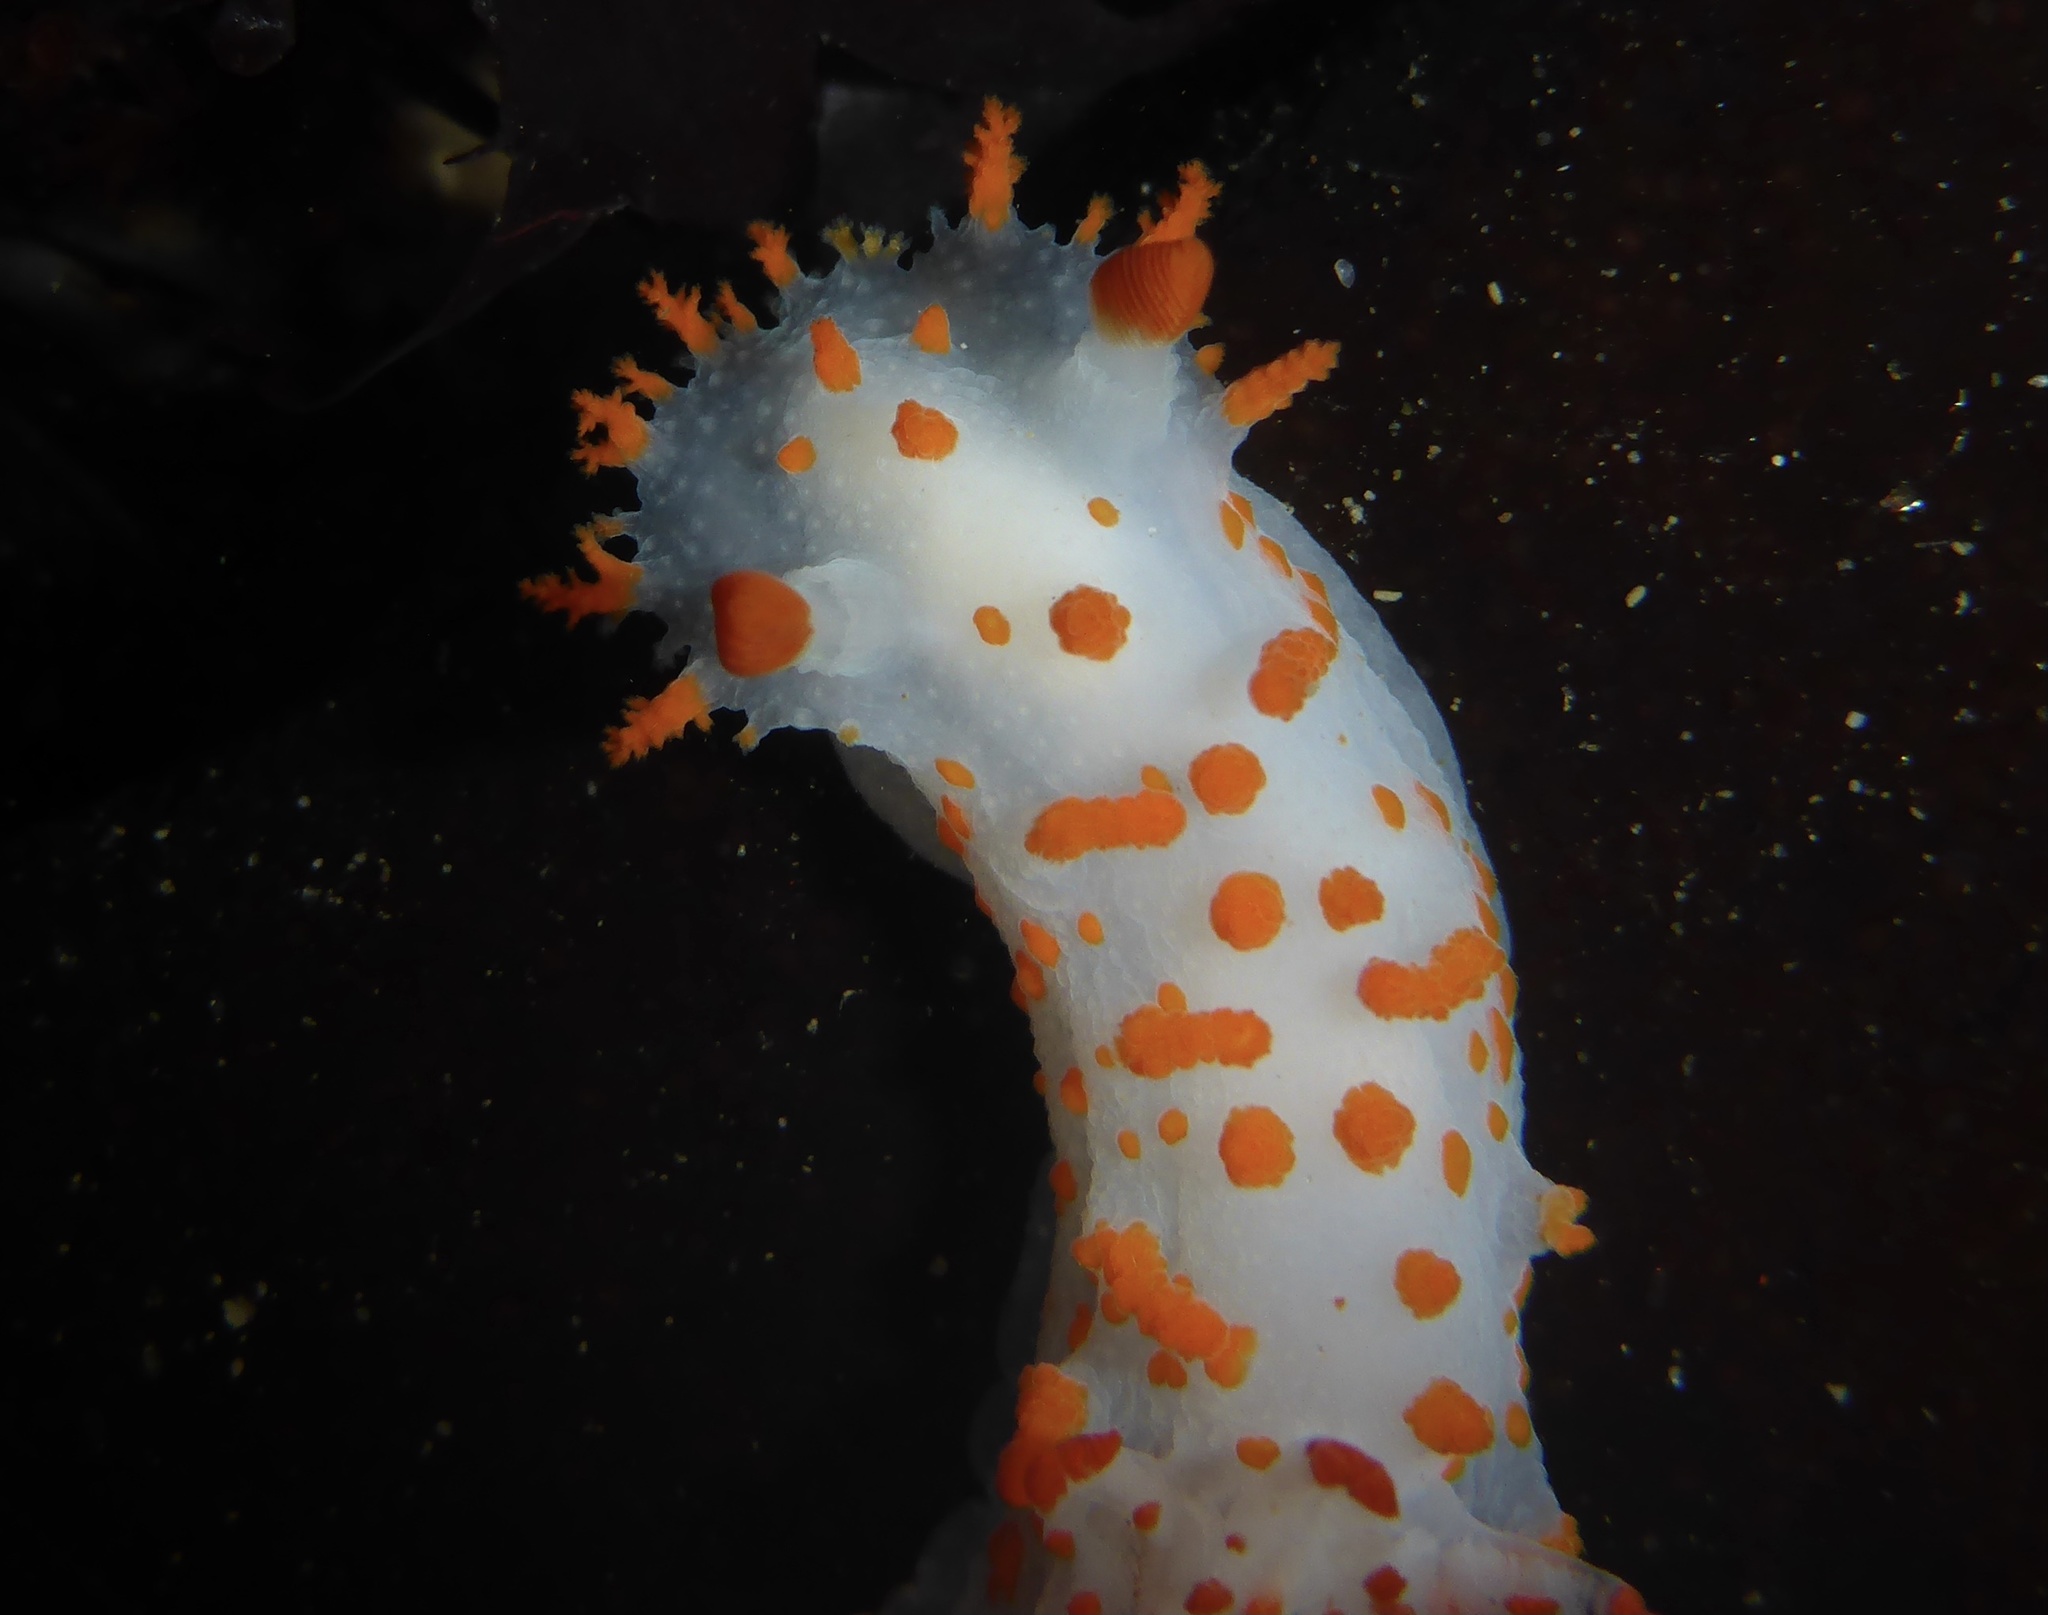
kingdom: Animalia
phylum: Mollusca
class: Gastropoda
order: Nudibranchia
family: Polyceridae
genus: Triopha
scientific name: Triopha catalinae
